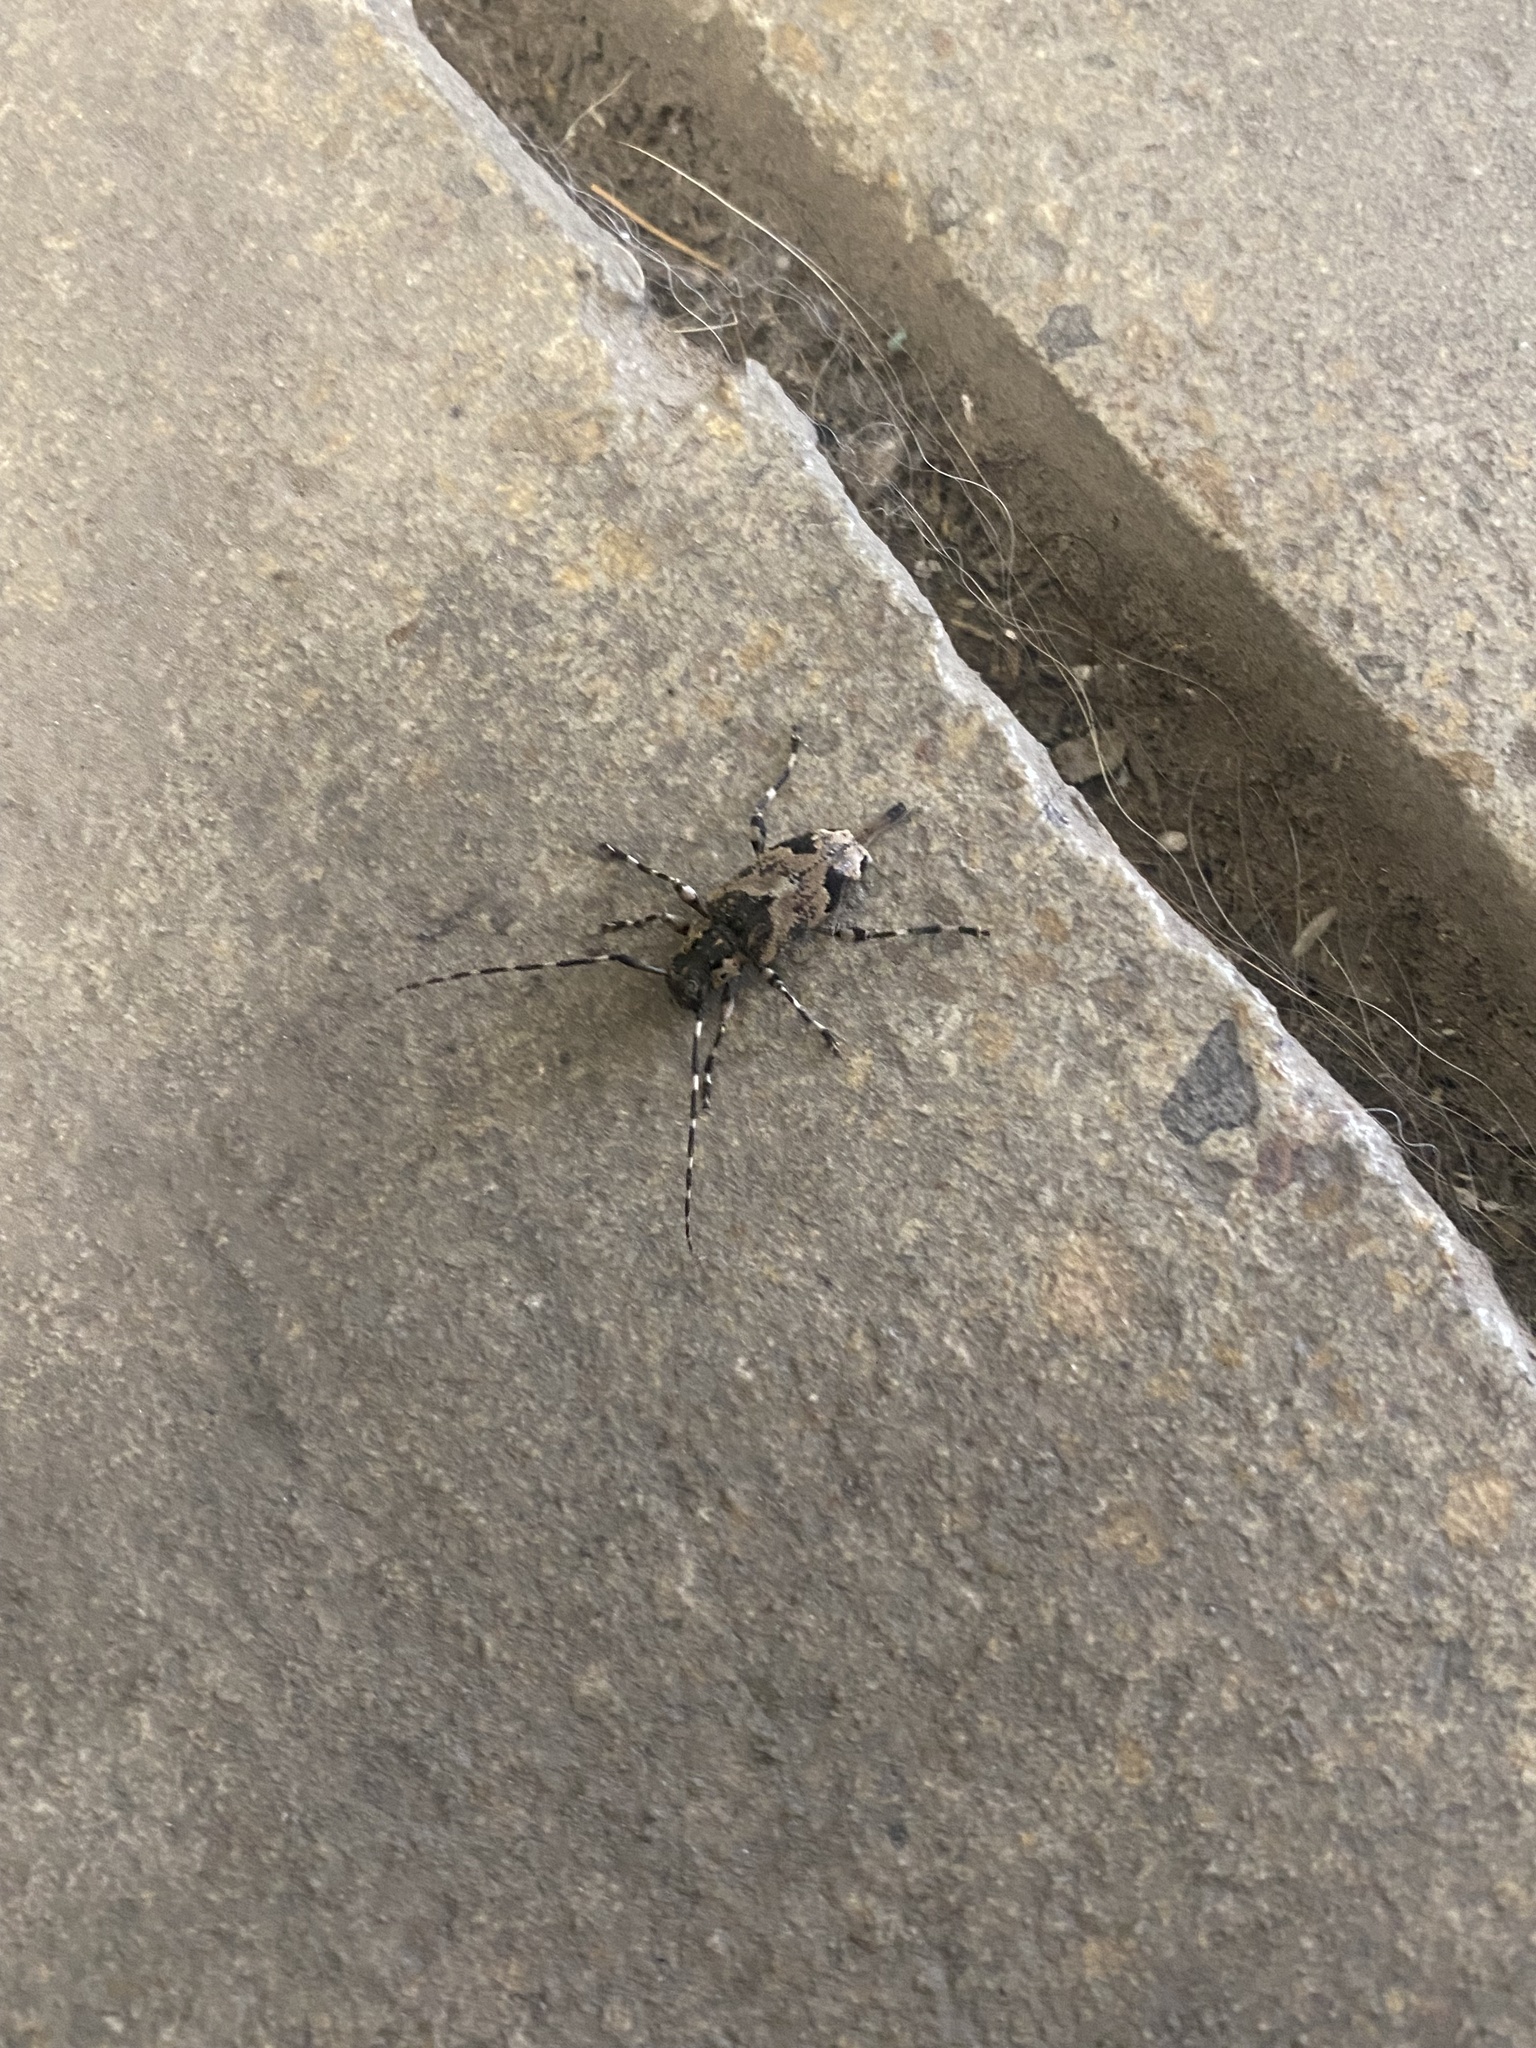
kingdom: Animalia
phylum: Arthropoda
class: Insecta
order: Coleoptera
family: Cerambycidae
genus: Graphisurus
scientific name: Graphisurus triangulifer
